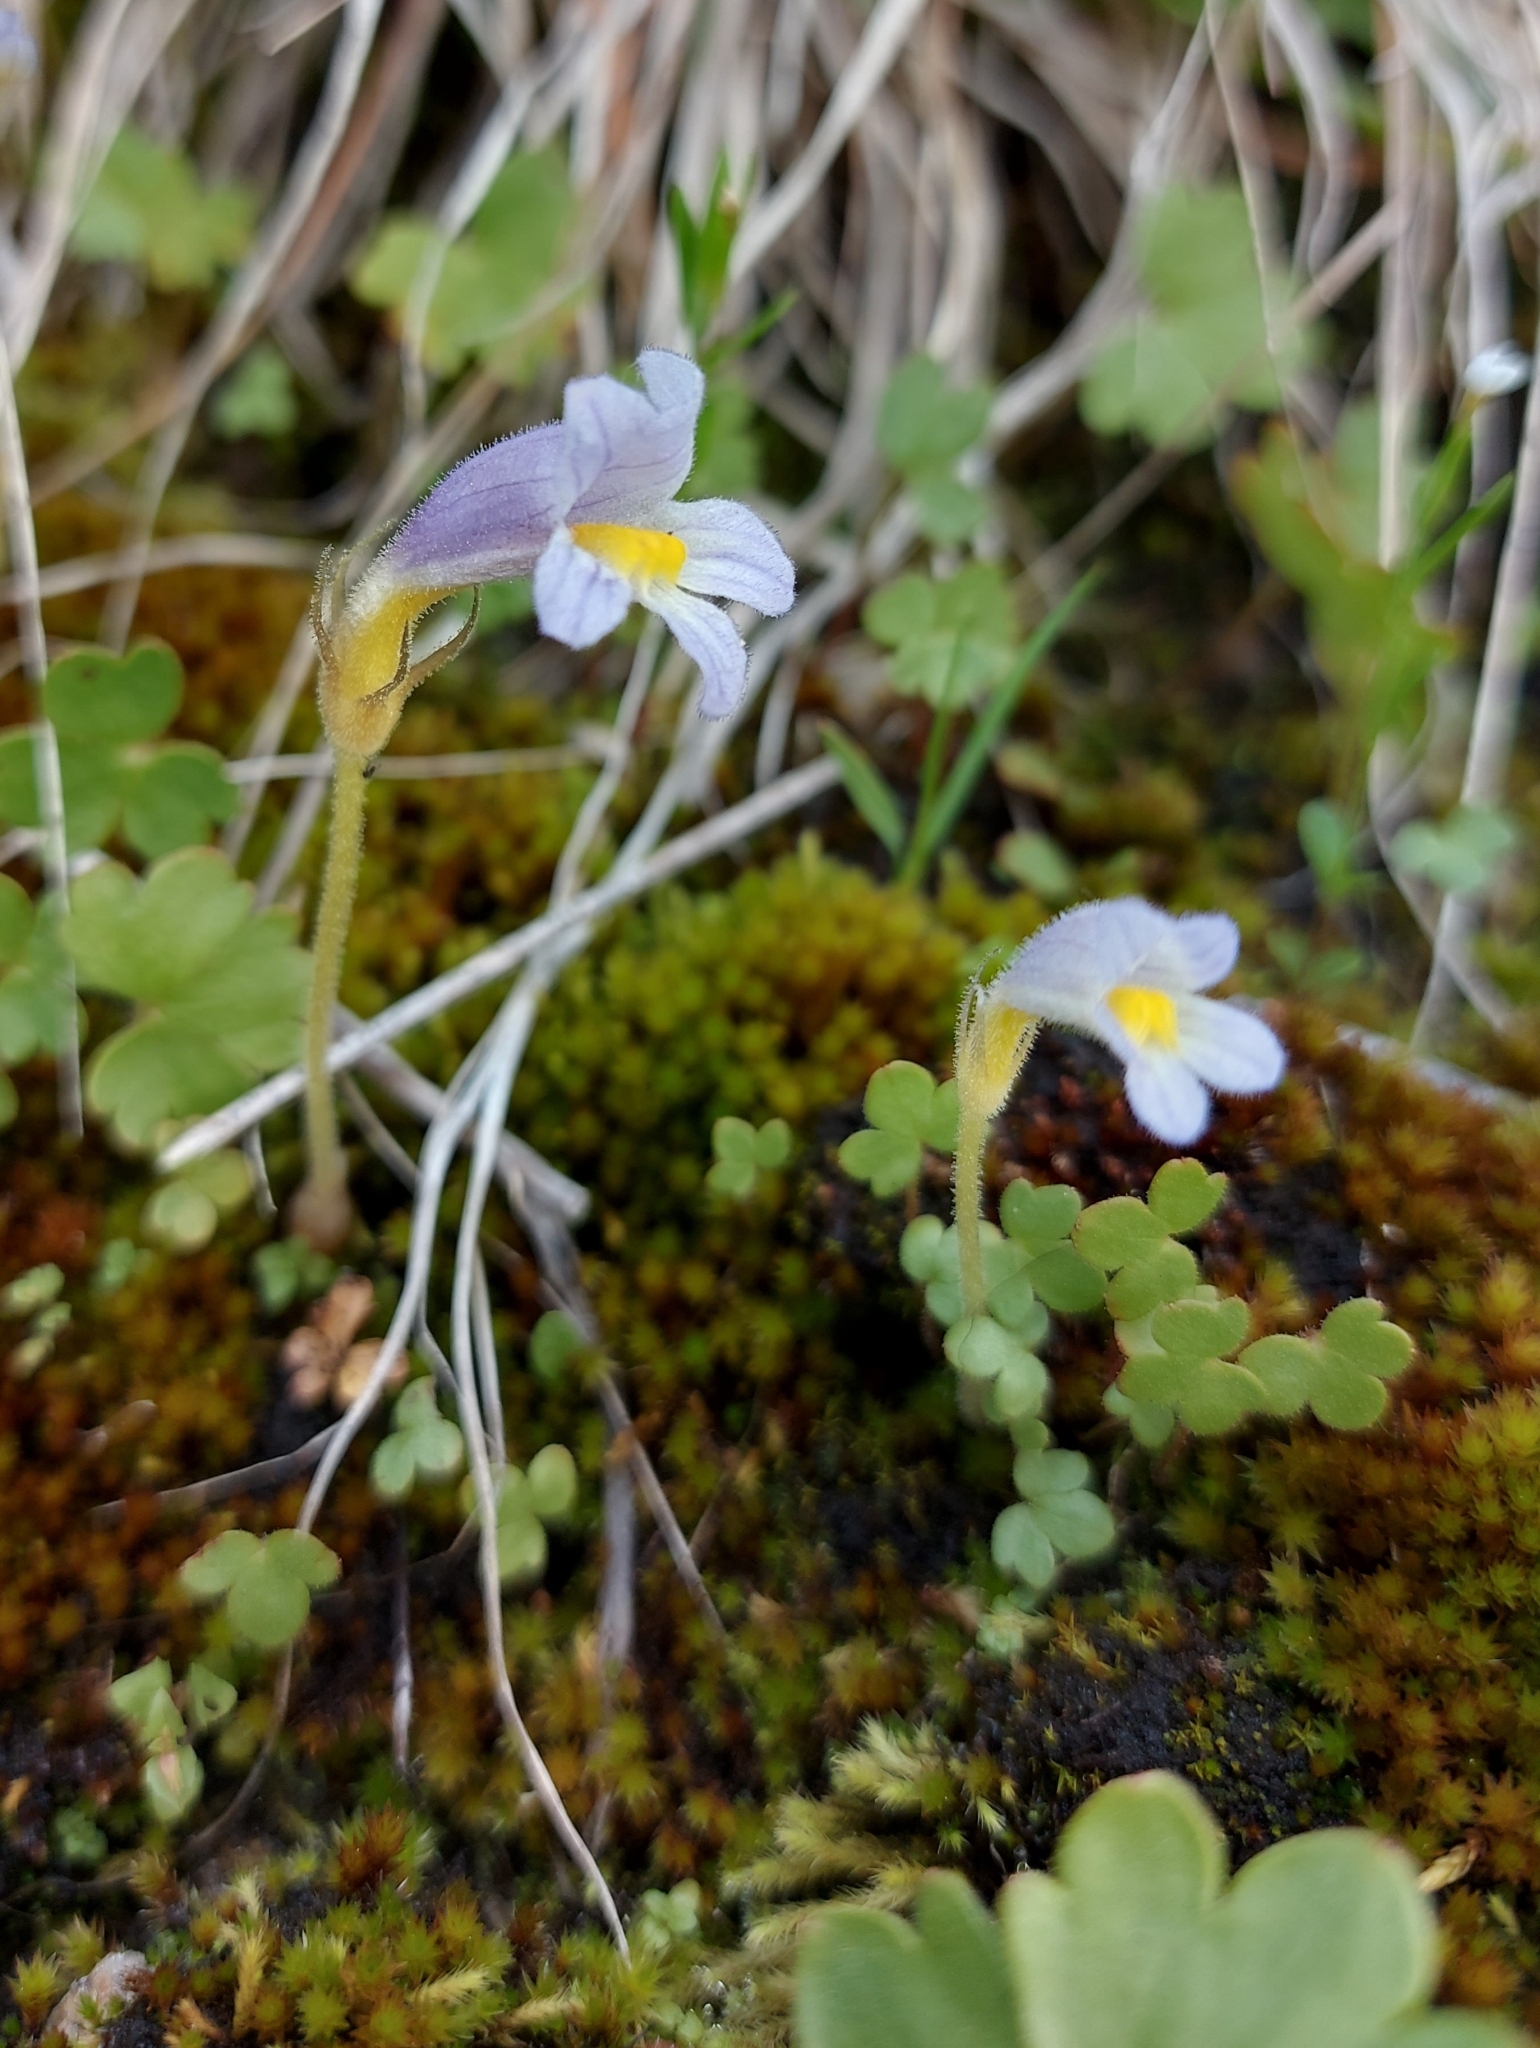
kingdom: Plantae
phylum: Tracheophyta
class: Magnoliopsida
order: Lamiales
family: Orobanchaceae
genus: Aphyllon
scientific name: Aphyllon uniflorum
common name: One-flowered broomrape
